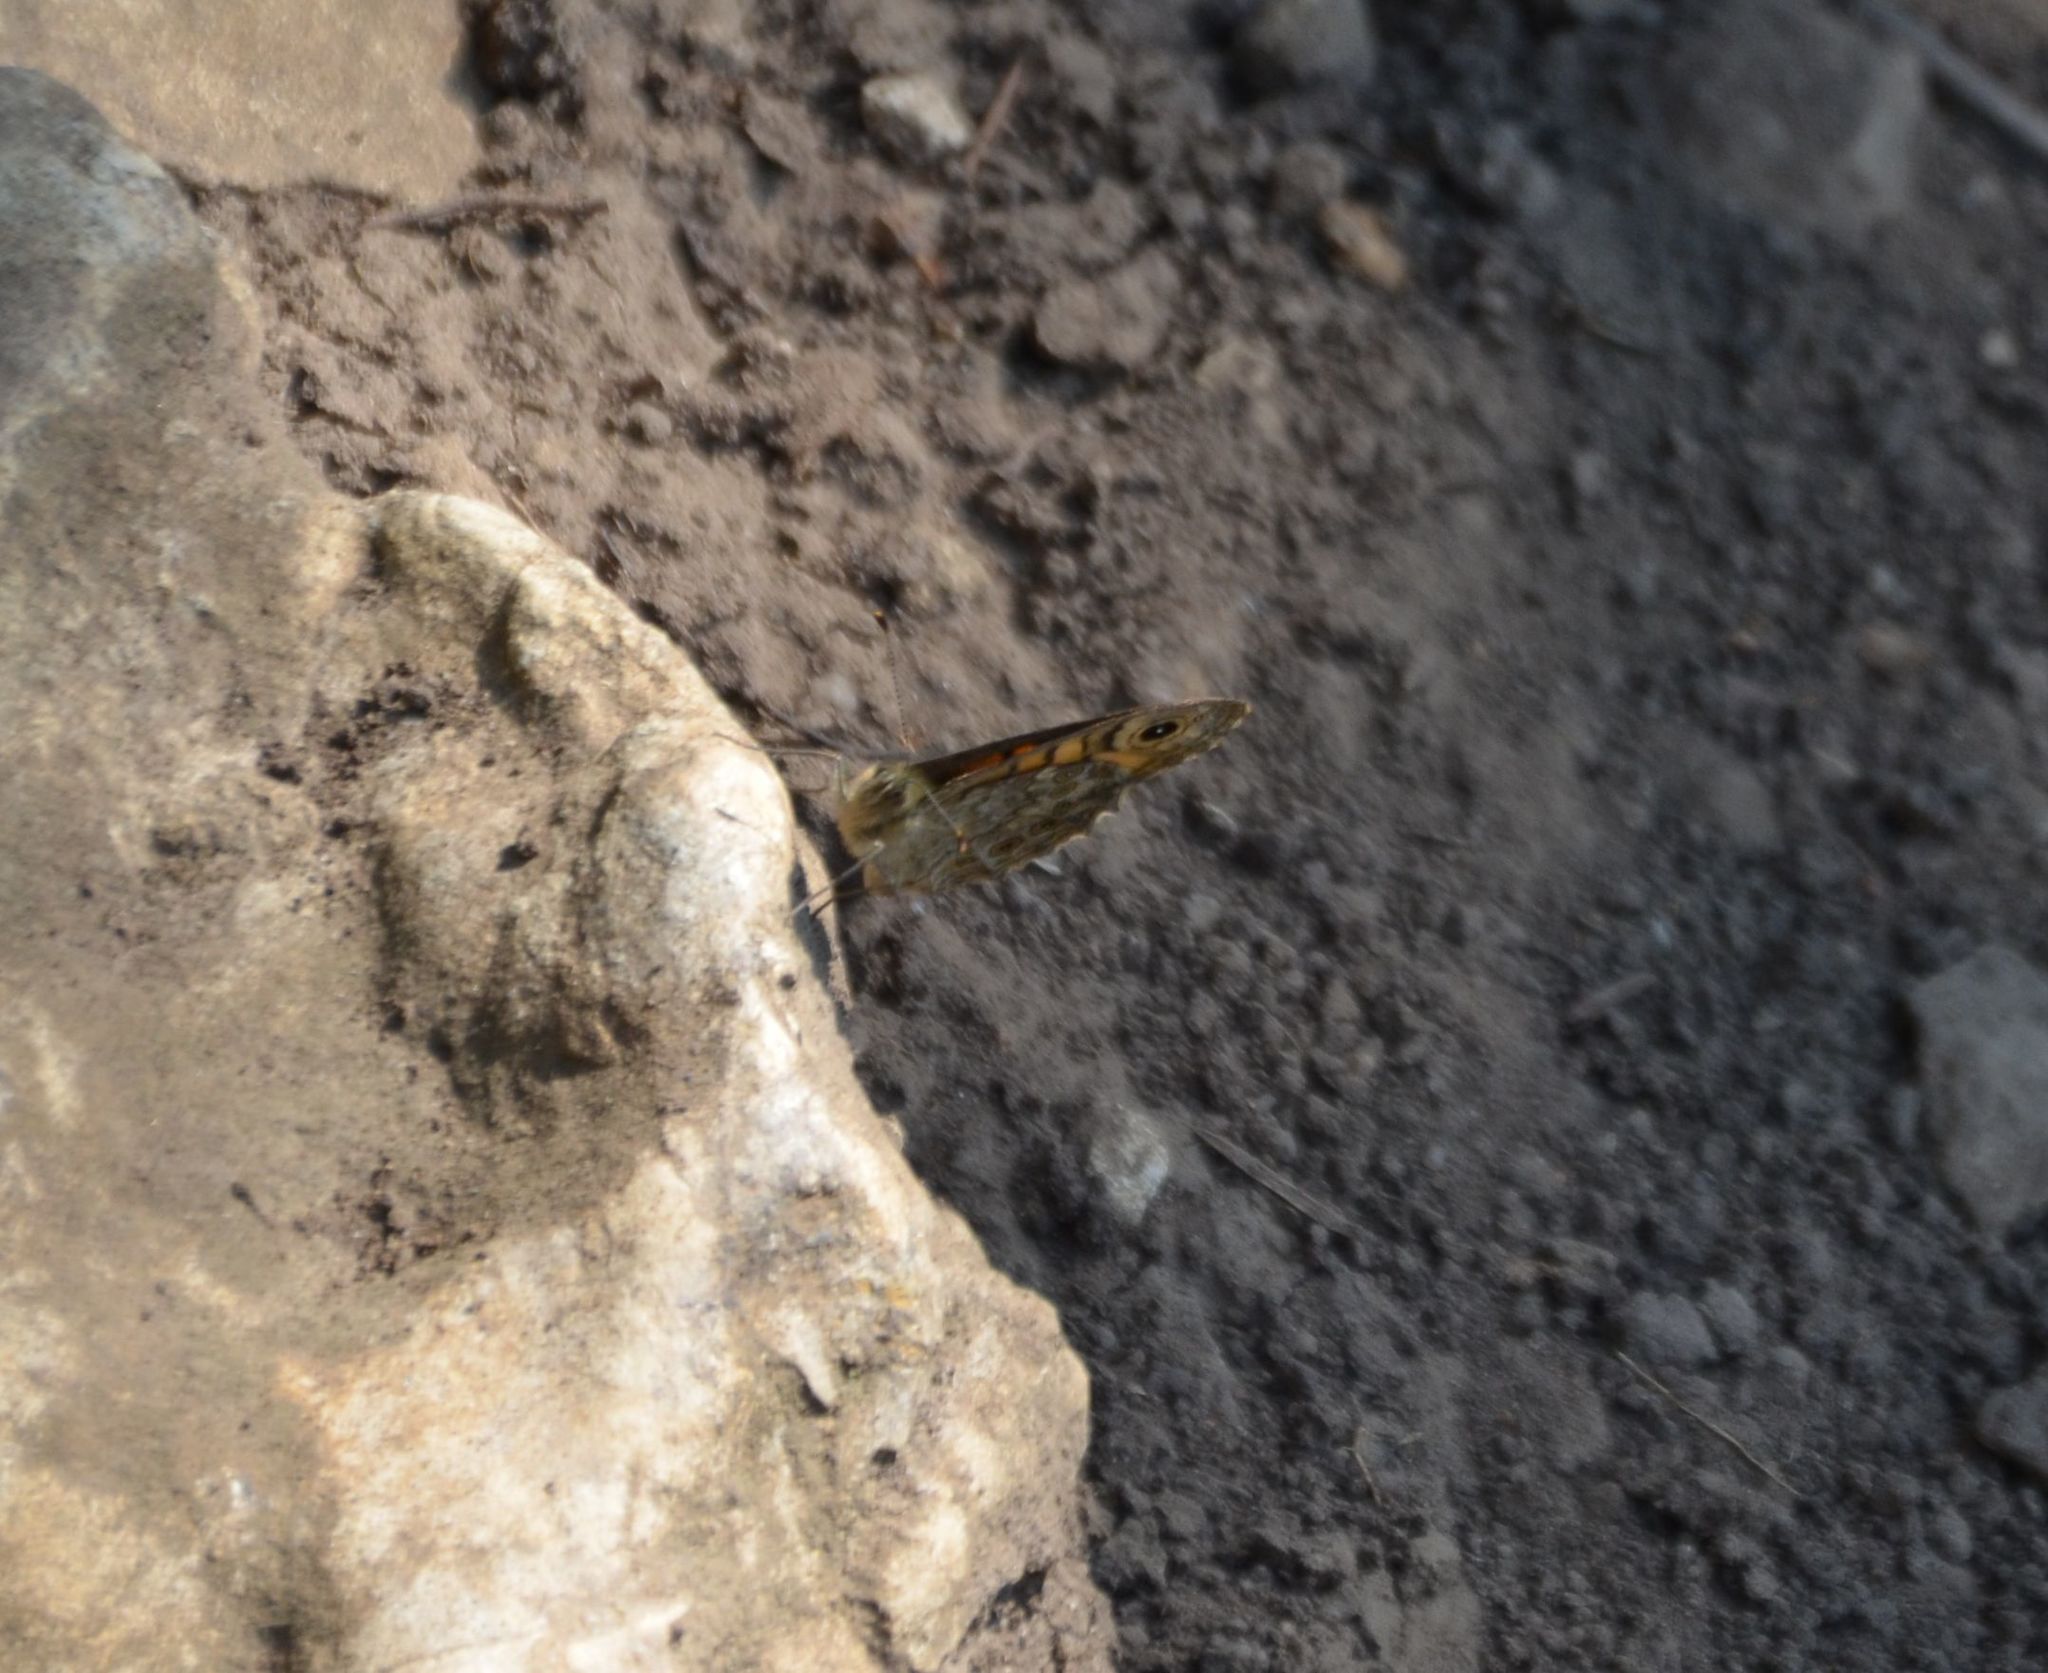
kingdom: Animalia
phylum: Arthropoda
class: Insecta
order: Lepidoptera
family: Nymphalidae
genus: Pararge
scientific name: Pararge Lasiommata megera
